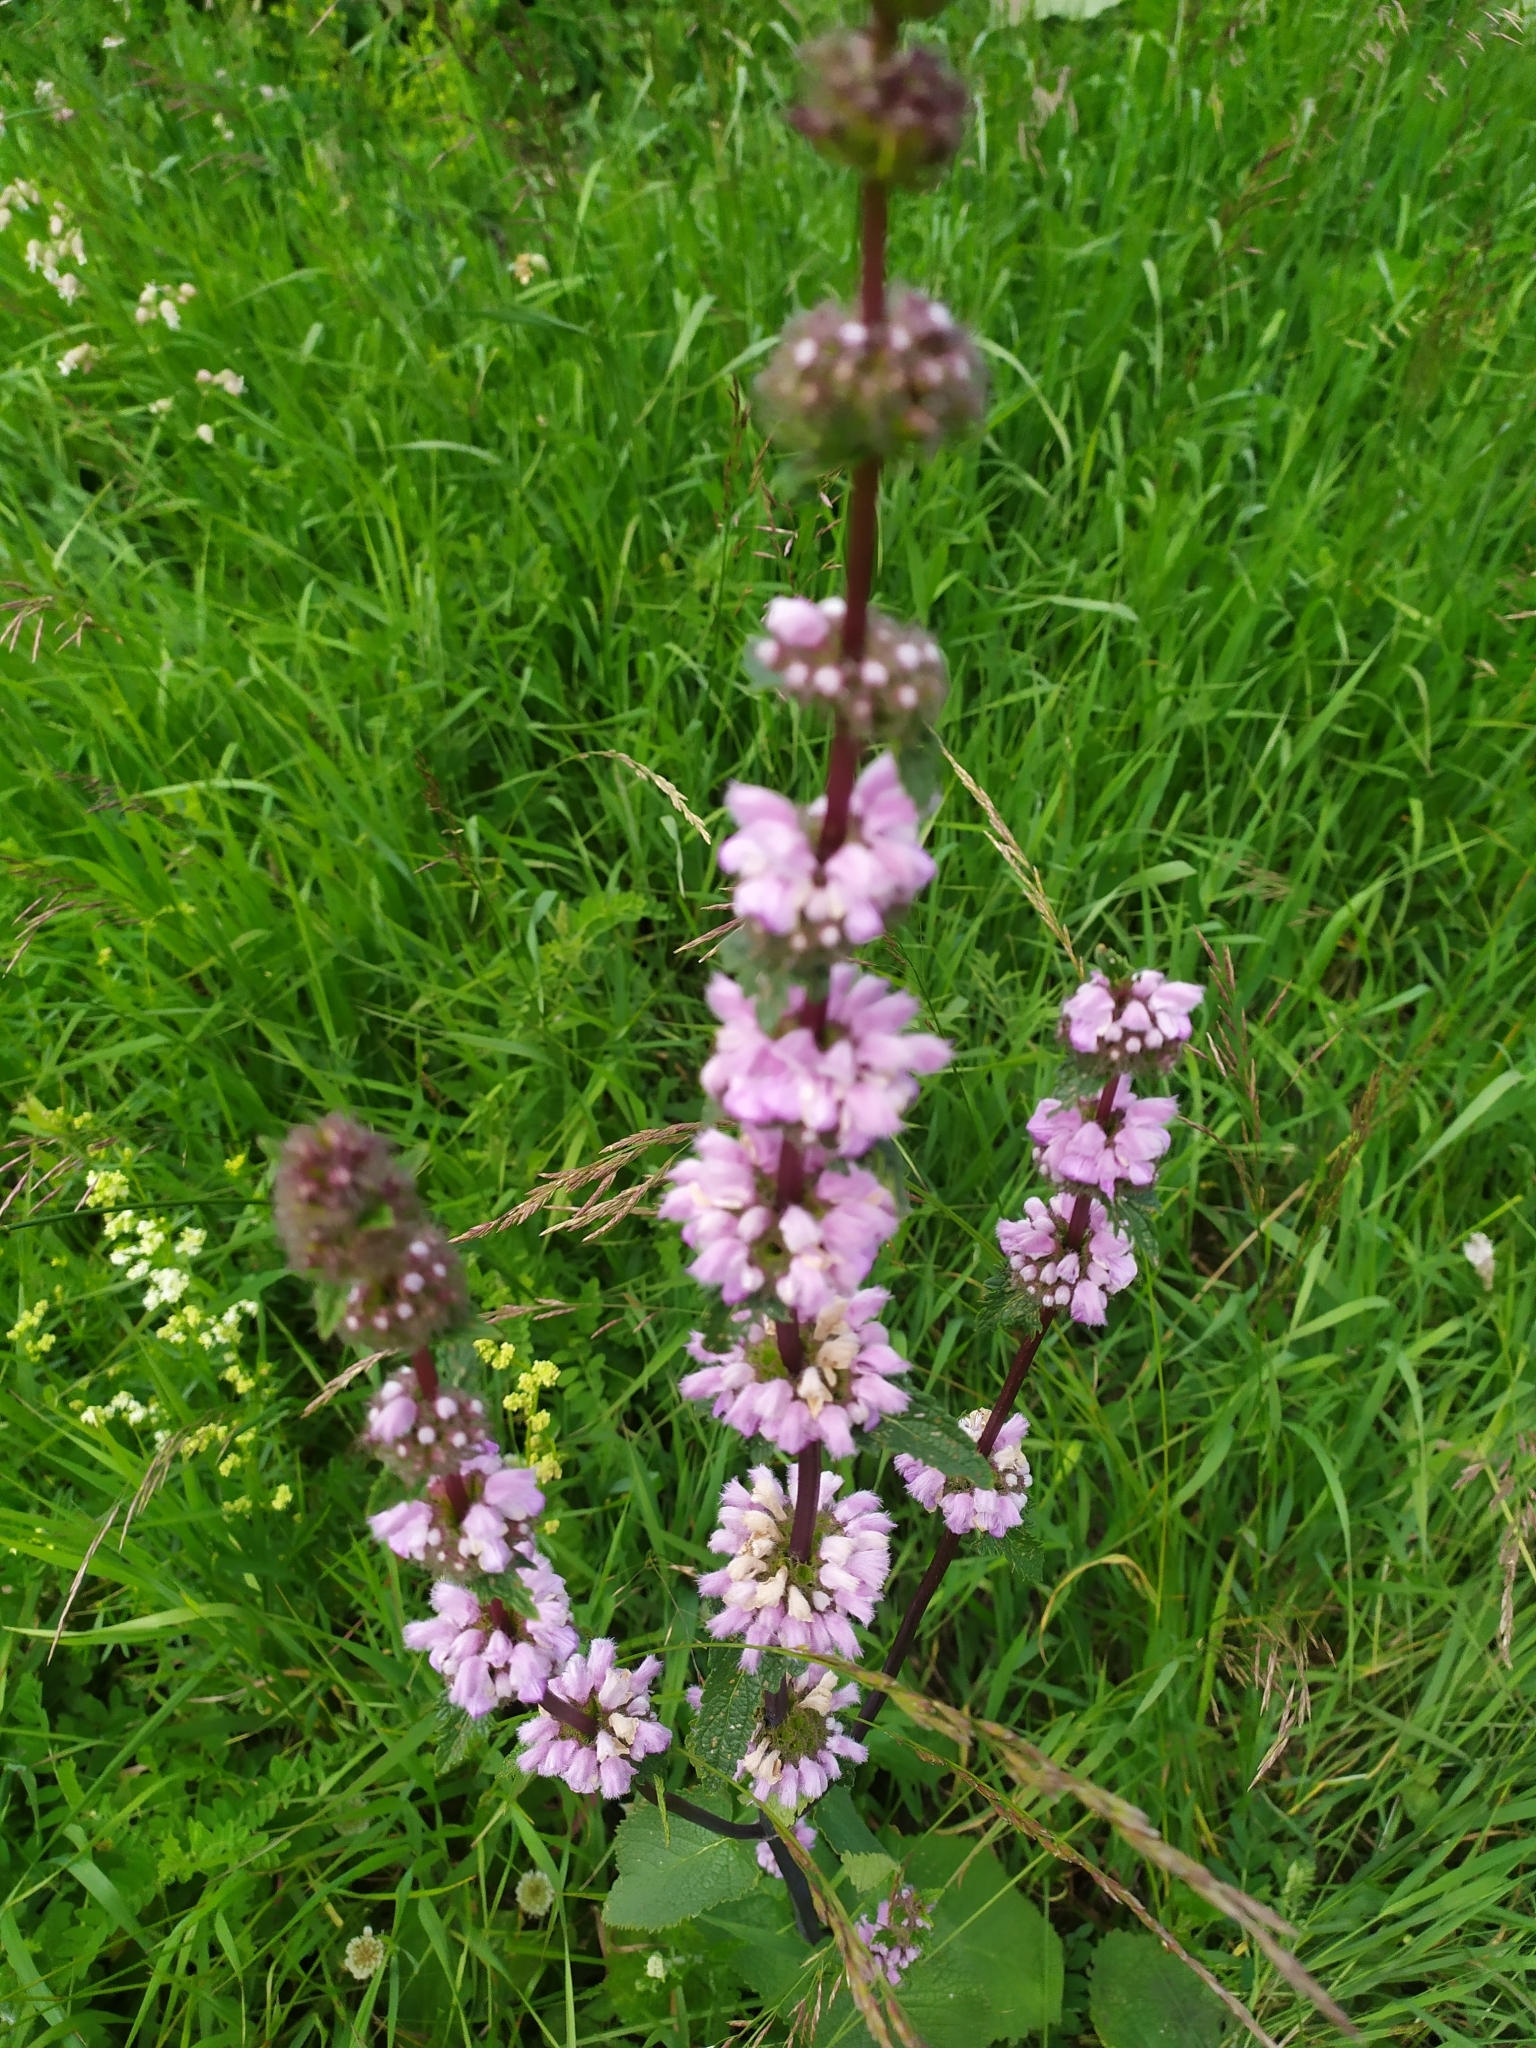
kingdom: Plantae
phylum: Tracheophyta
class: Magnoliopsida
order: Lamiales
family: Lamiaceae
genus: Phlomoides
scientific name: Phlomoides tuberosa
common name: Tuberous jerusalem sage
